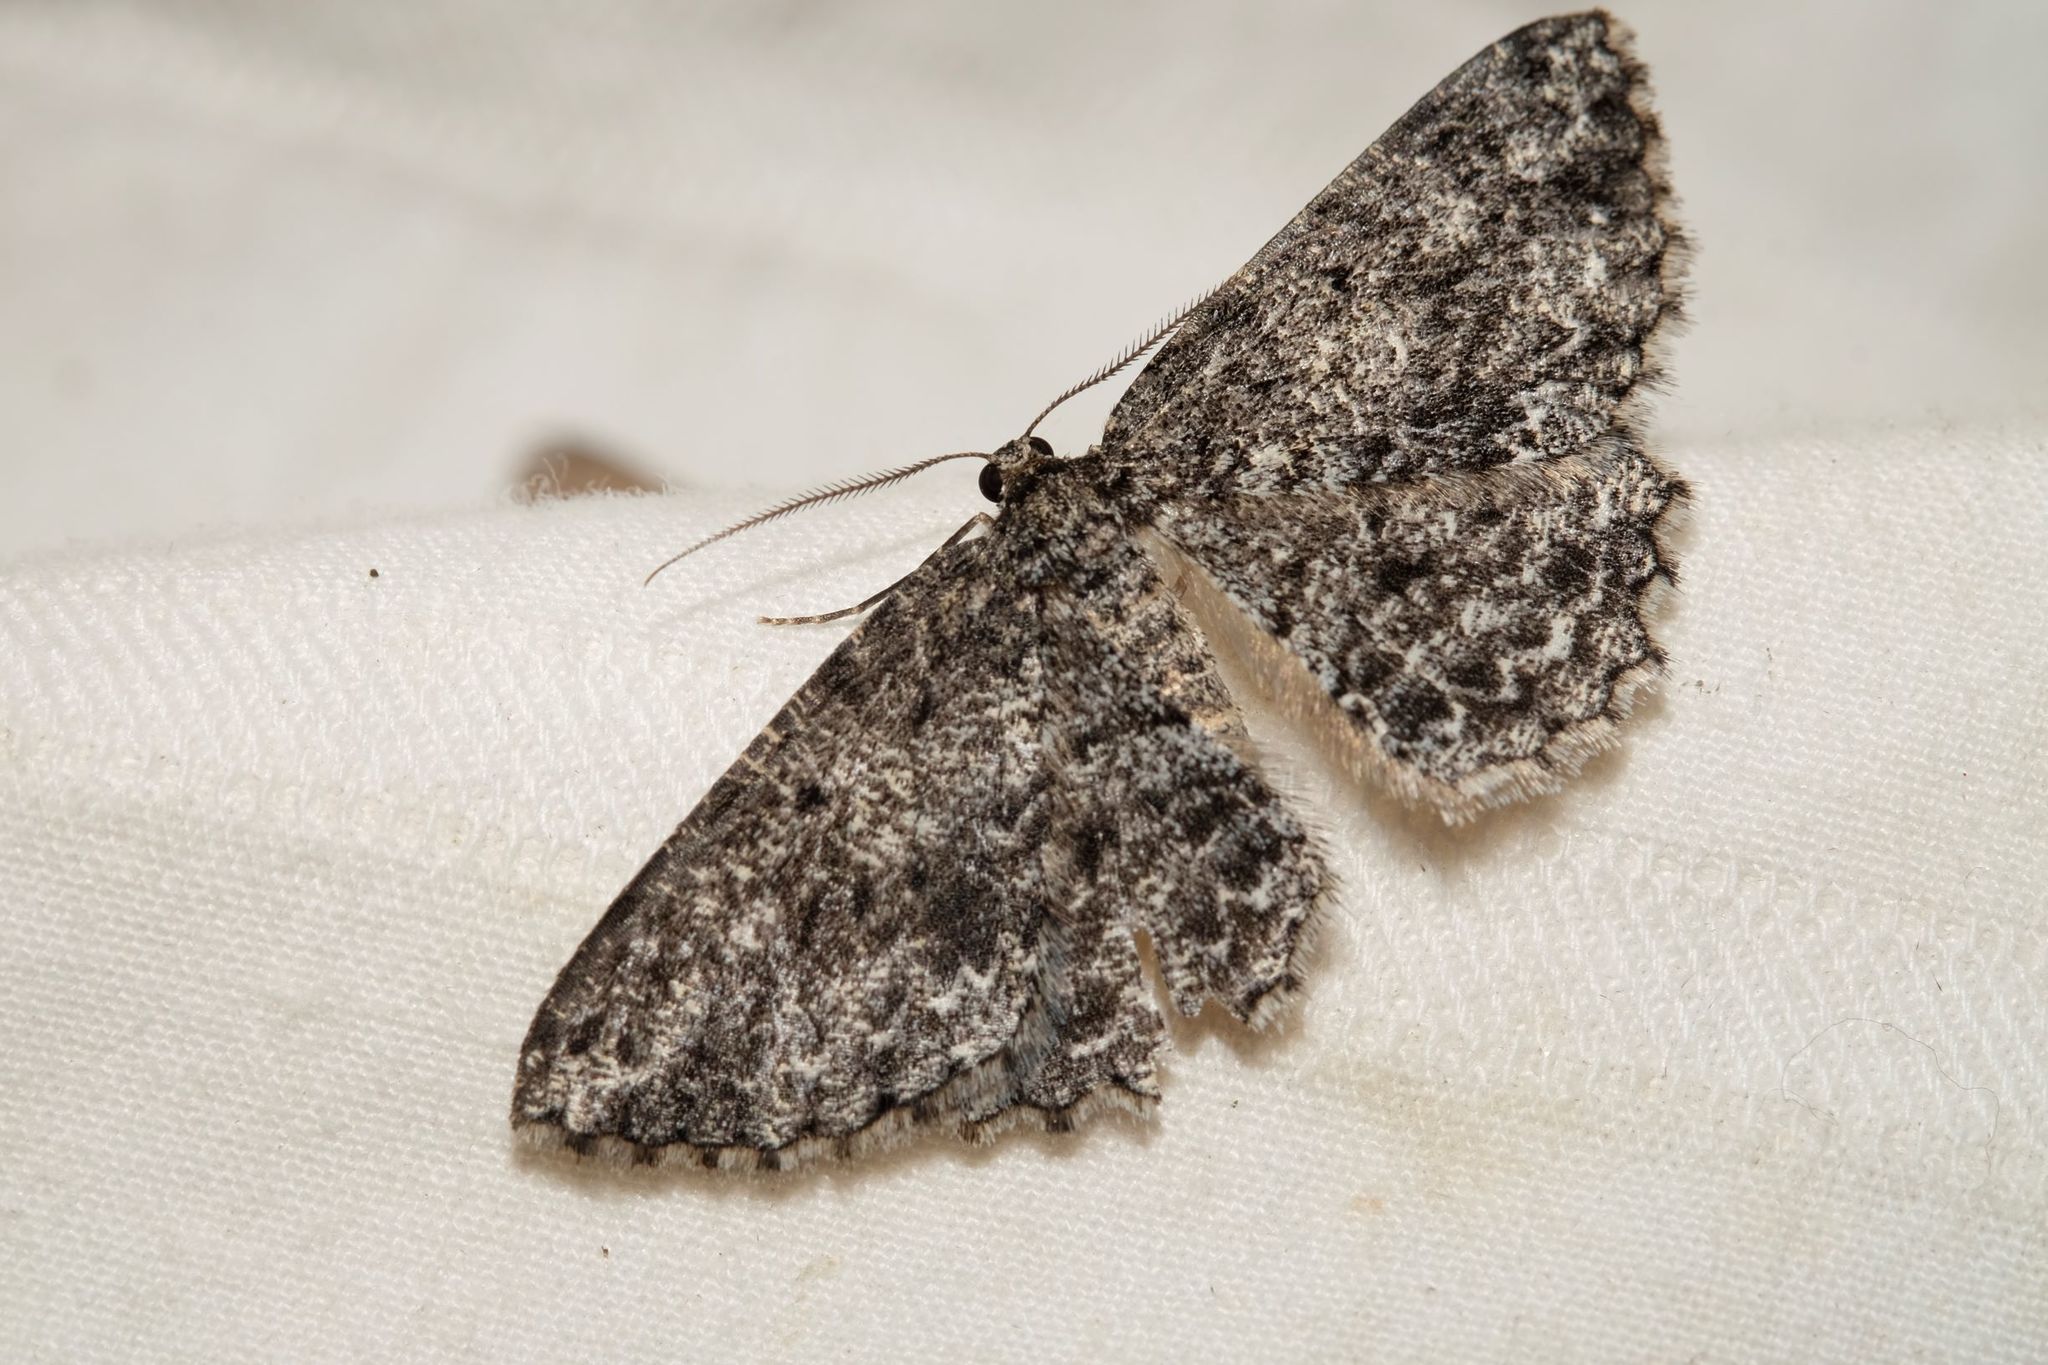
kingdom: Animalia
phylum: Arthropoda
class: Insecta
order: Lepidoptera
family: Geometridae
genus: Thallogama
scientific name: Thallogama nigraria
